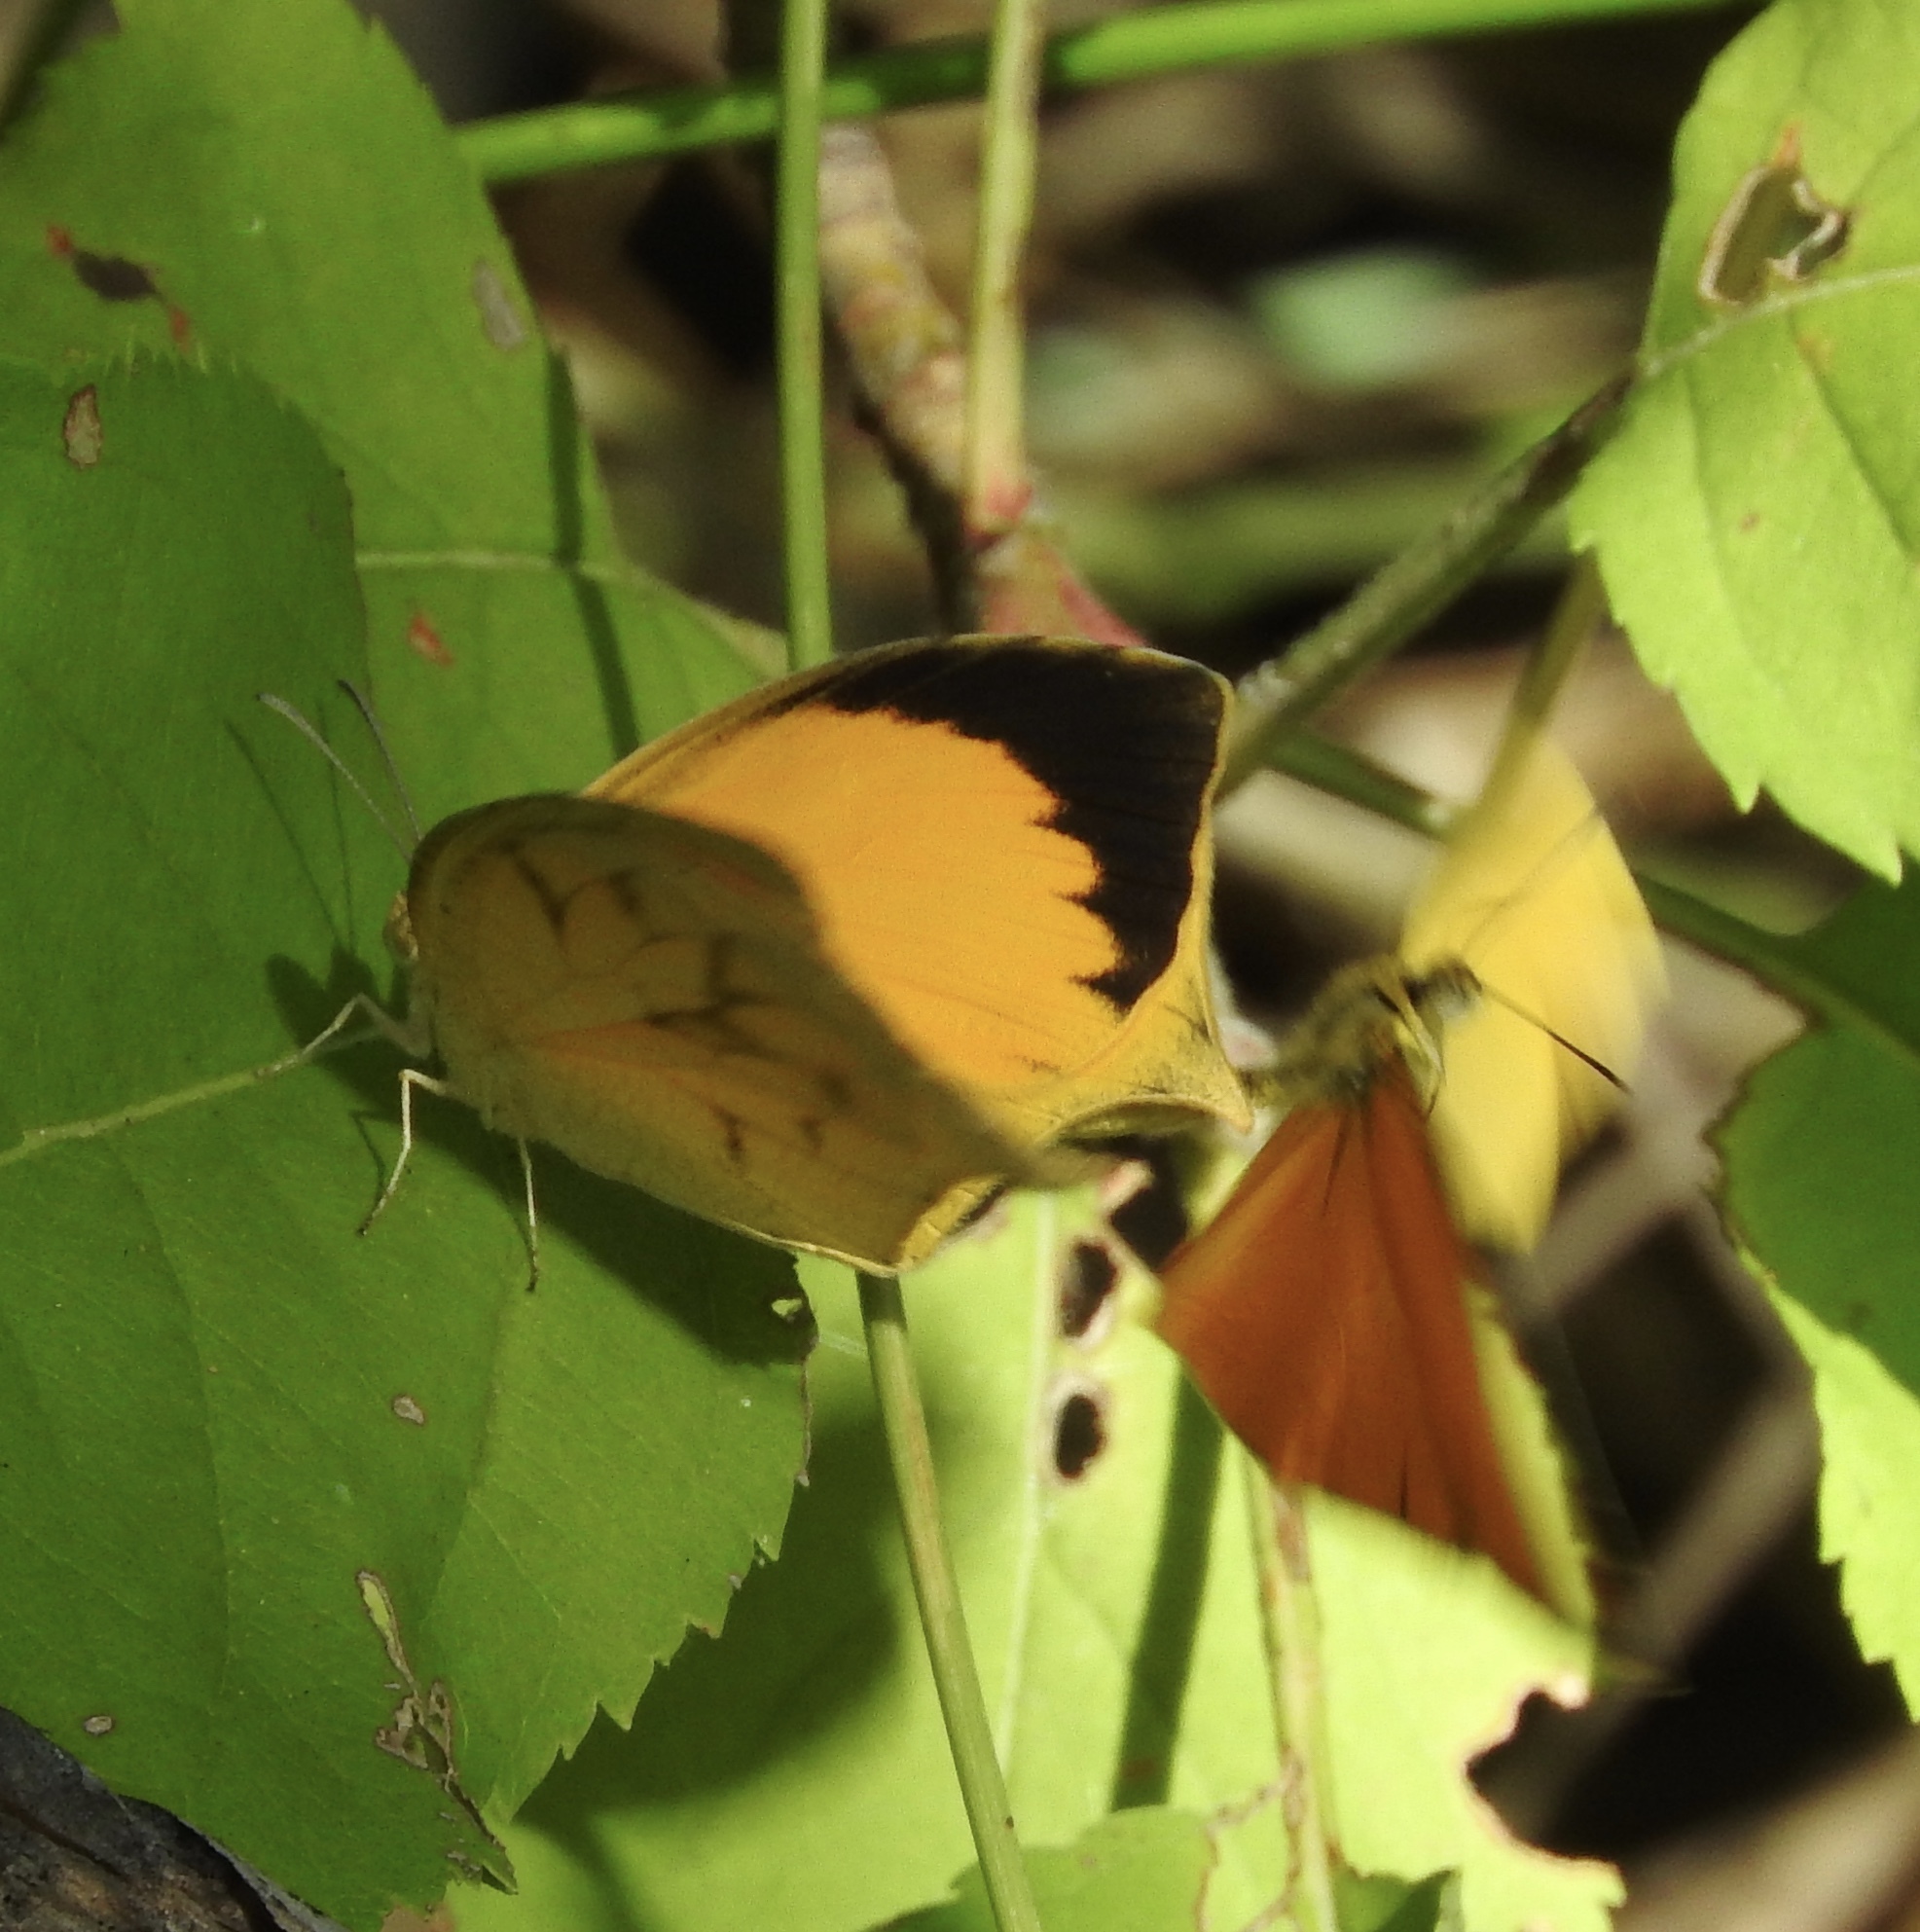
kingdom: Animalia
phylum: Arthropoda
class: Insecta
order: Lepidoptera
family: Pieridae
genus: Pyrisitia
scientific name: Pyrisitia proterpia
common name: Tailed orange
